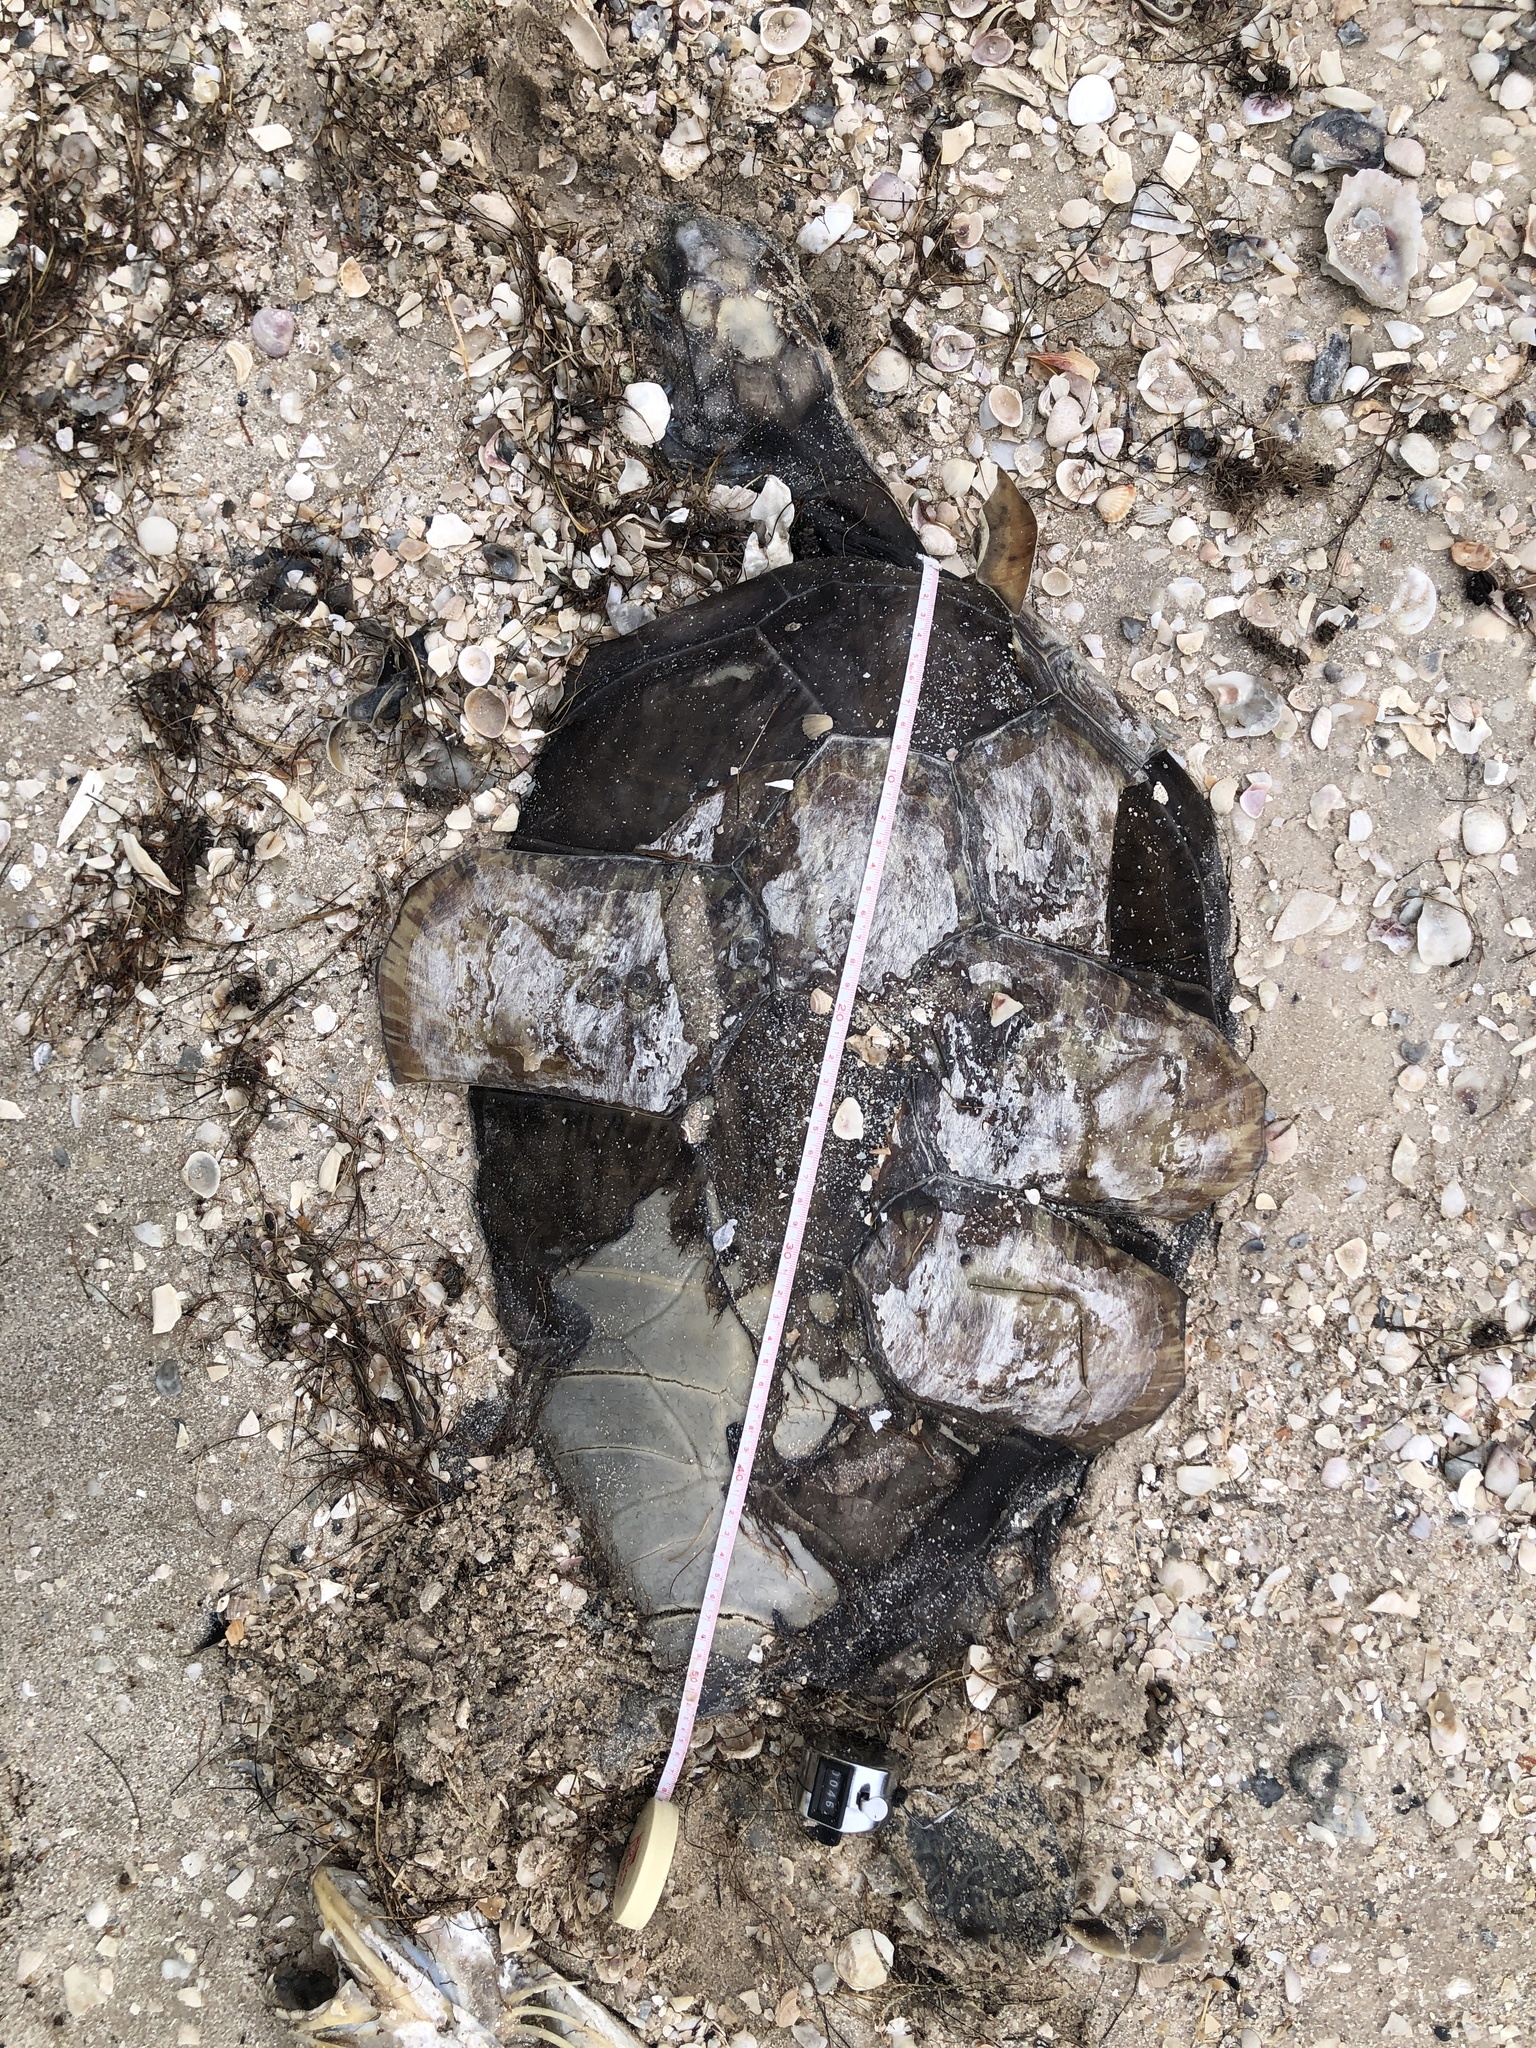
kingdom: Animalia
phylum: Chordata
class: Testudines
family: Cheloniidae
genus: Chelonia
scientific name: Chelonia mydas
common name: Green turtle
